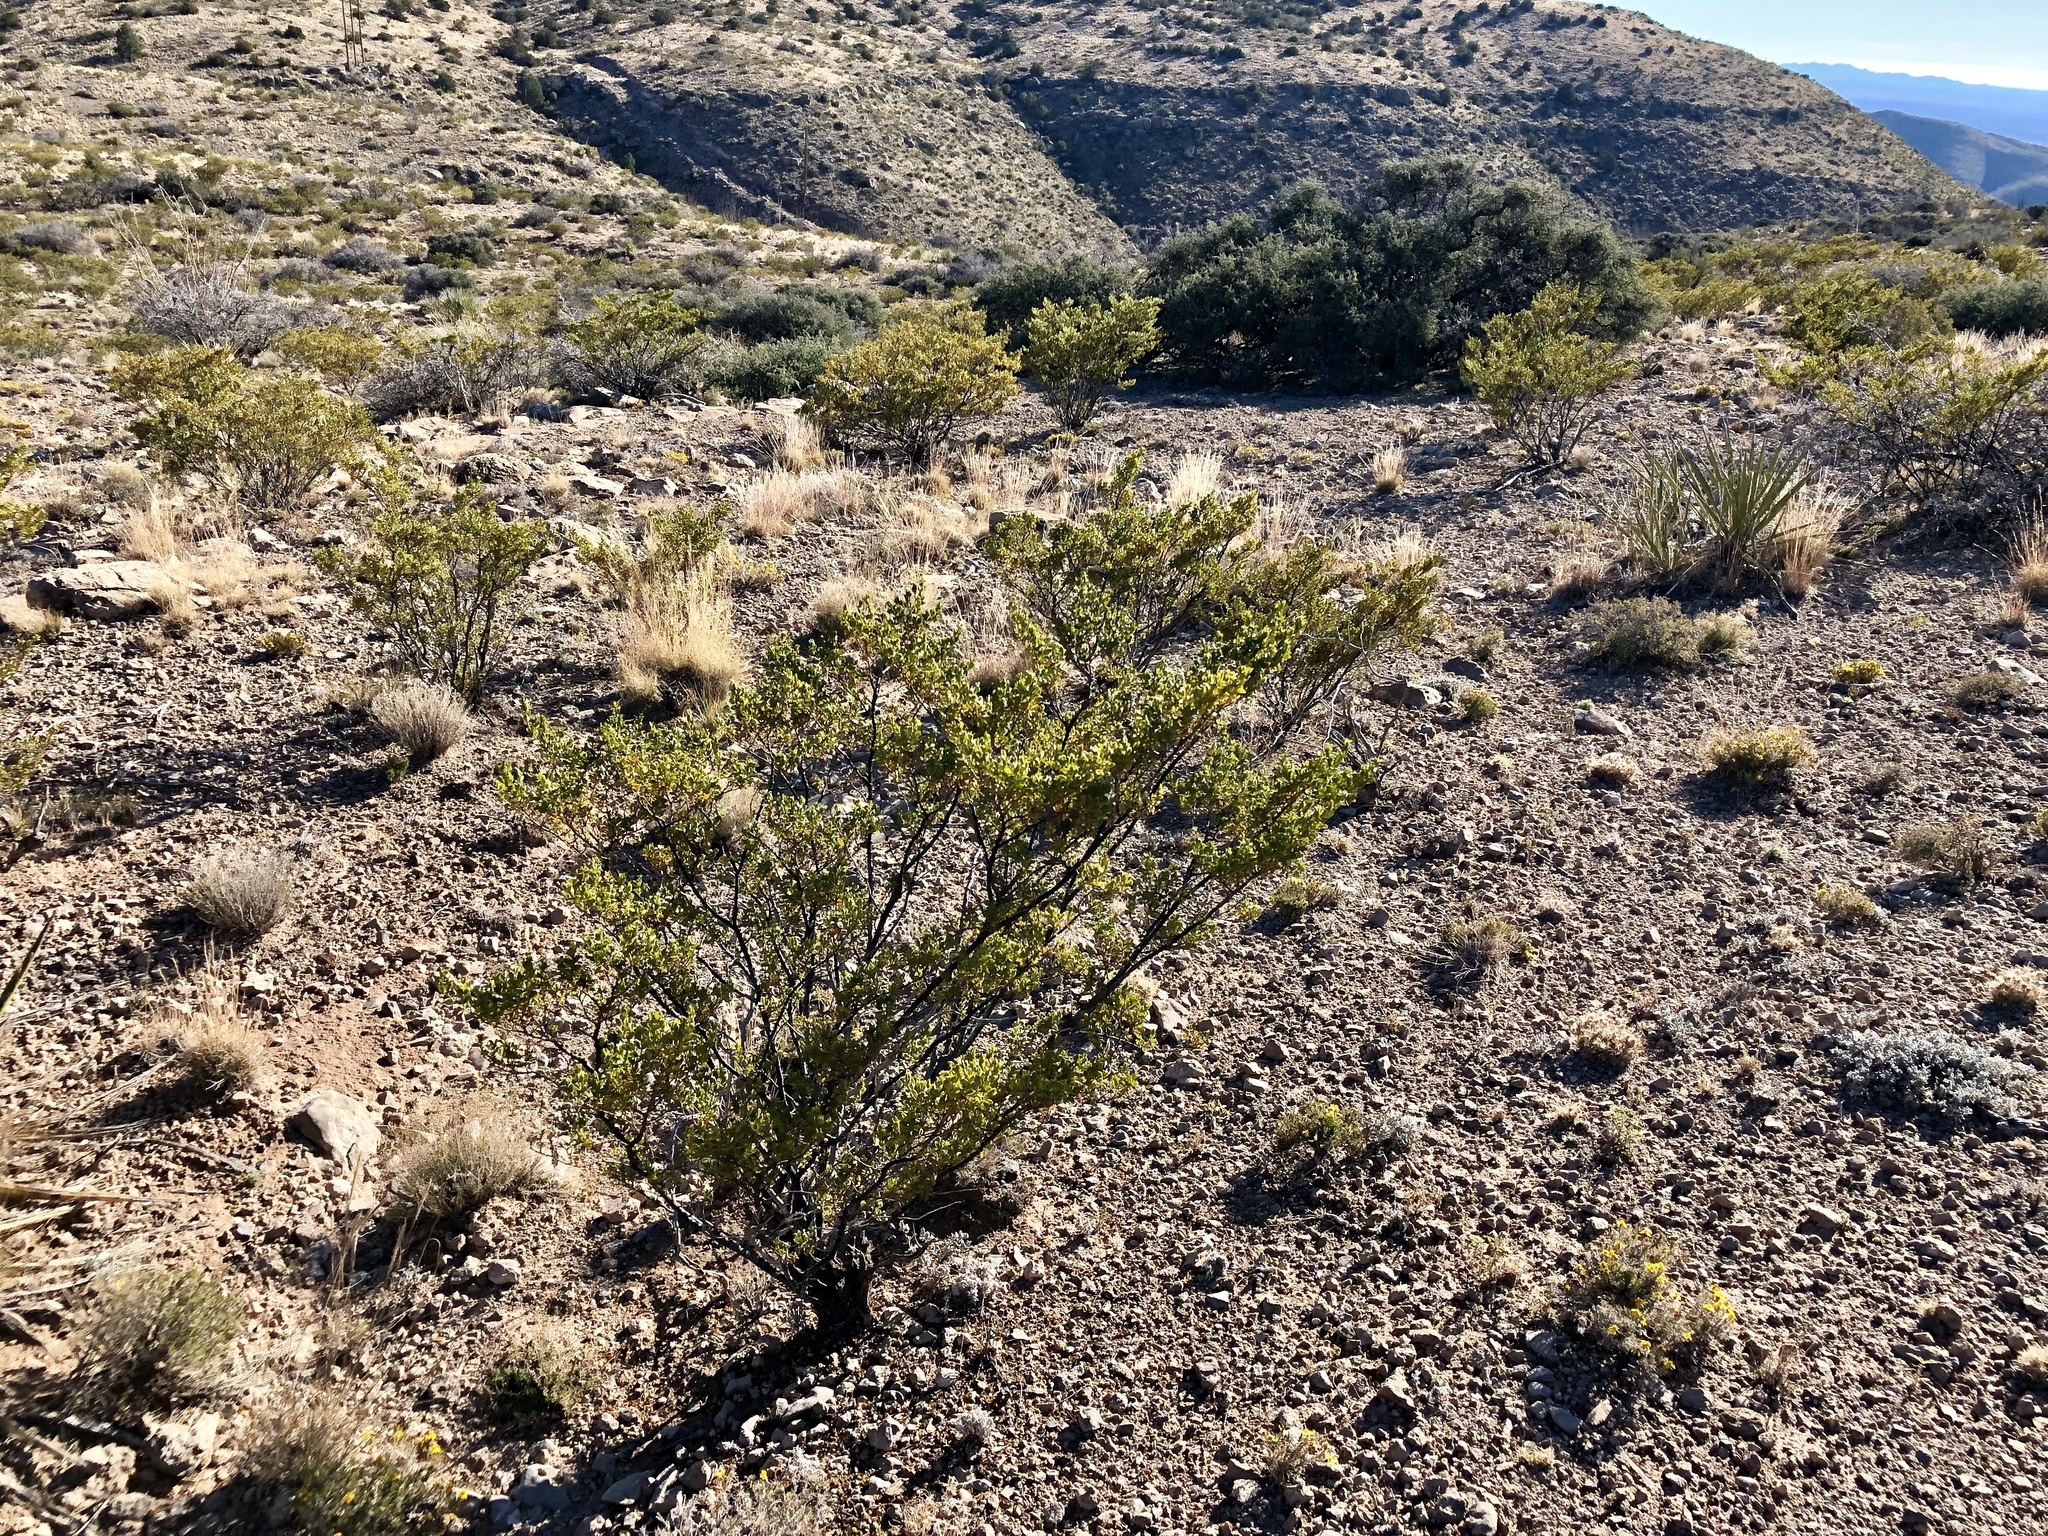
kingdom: Plantae
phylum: Tracheophyta
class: Magnoliopsida
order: Zygophyllales
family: Zygophyllaceae
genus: Larrea
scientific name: Larrea tridentata
